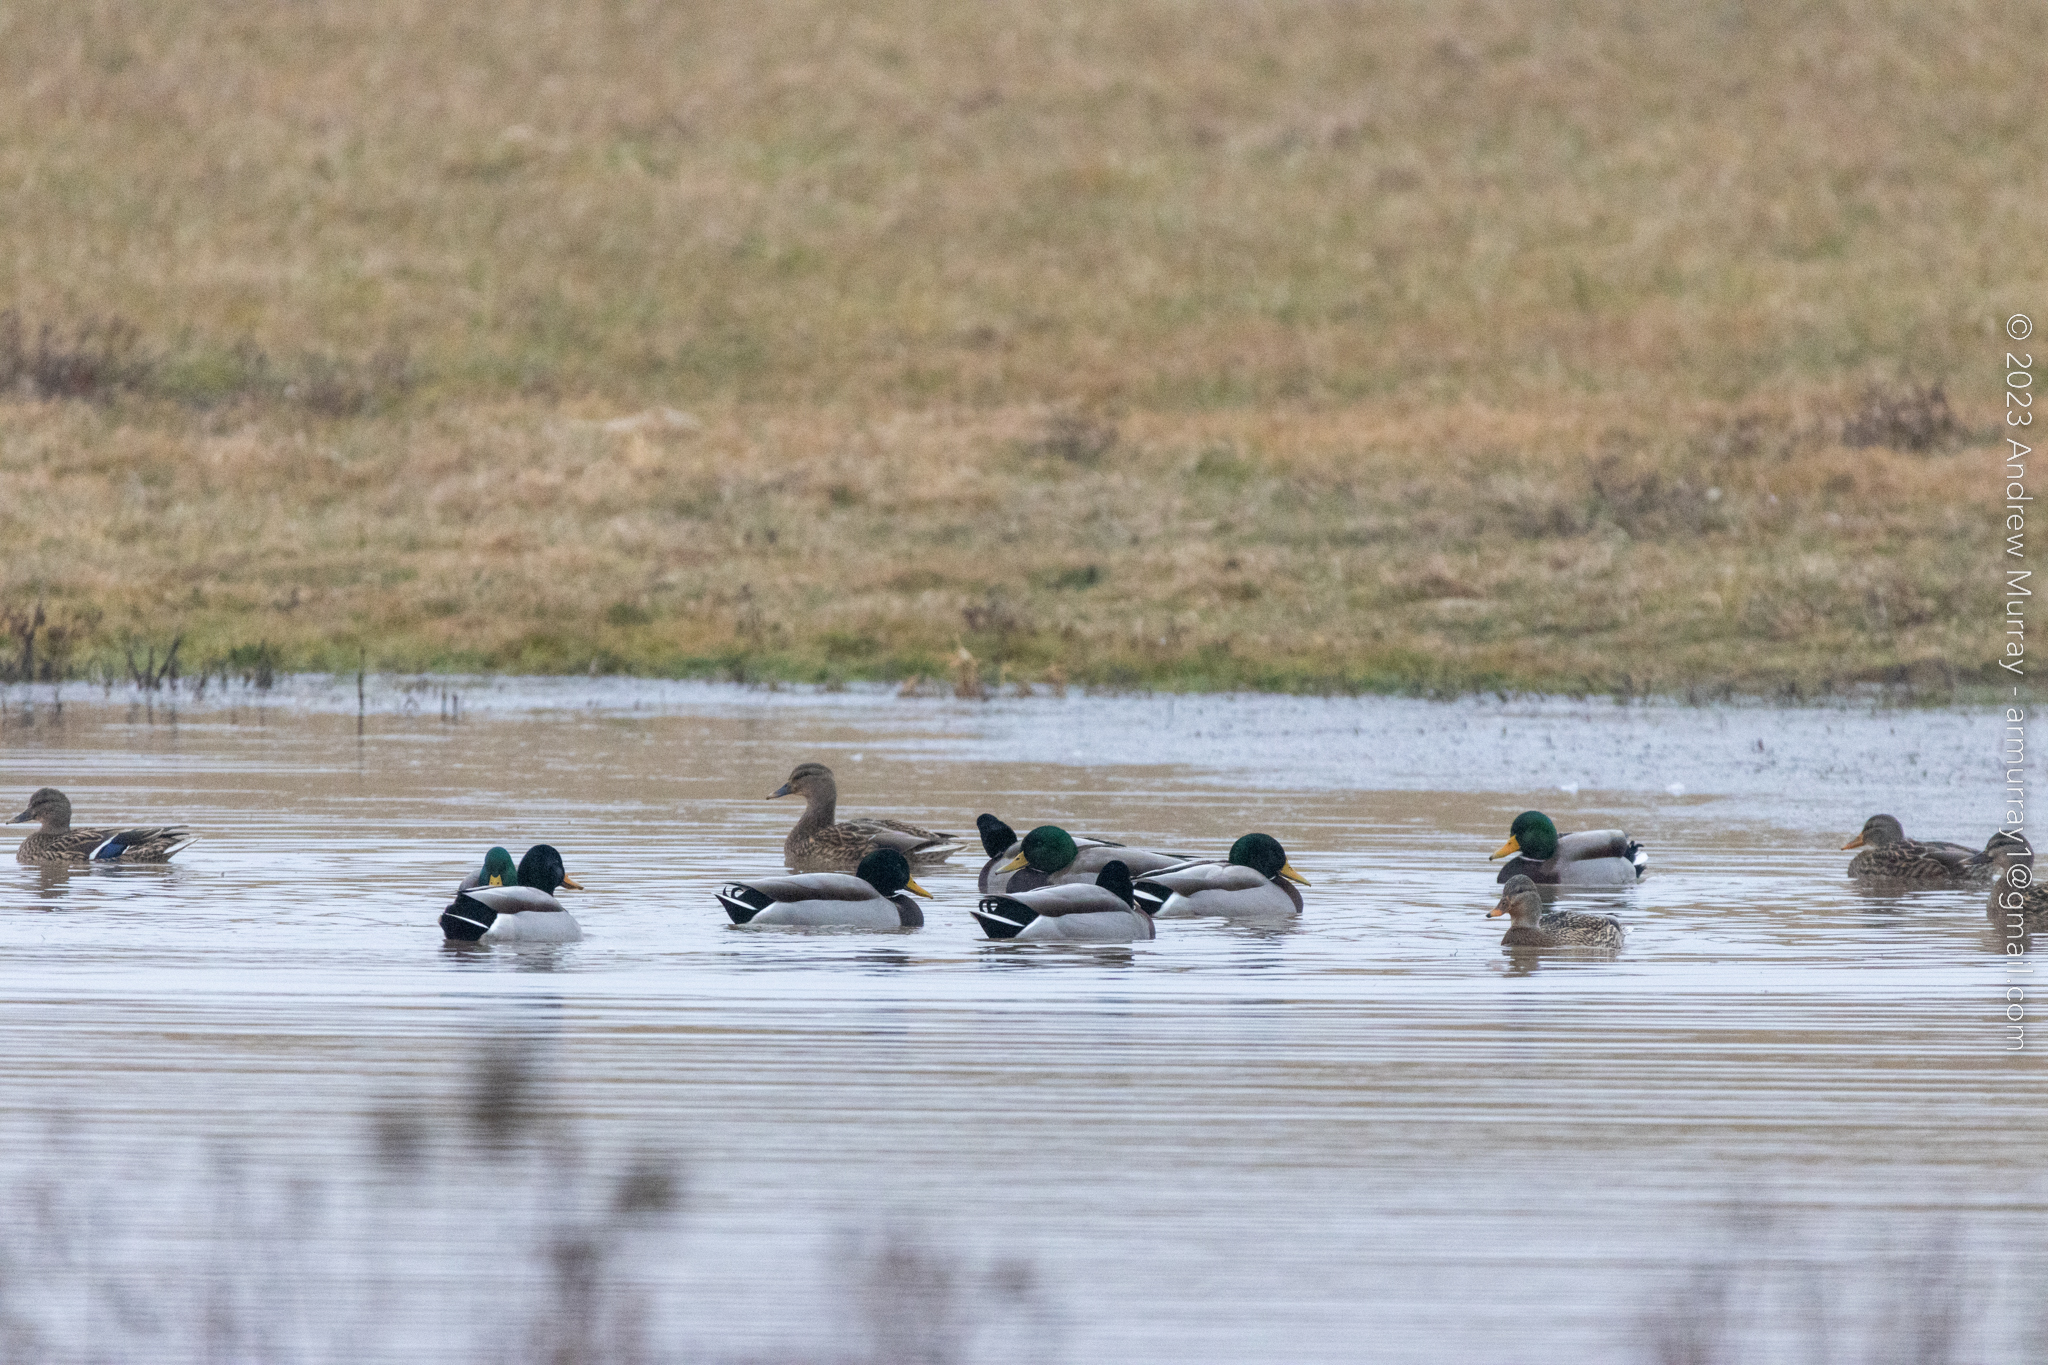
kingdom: Animalia
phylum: Chordata
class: Aves
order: Anseriformes
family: Anatidae
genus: Anas
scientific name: Anas platyrhynchos
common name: Mallard
